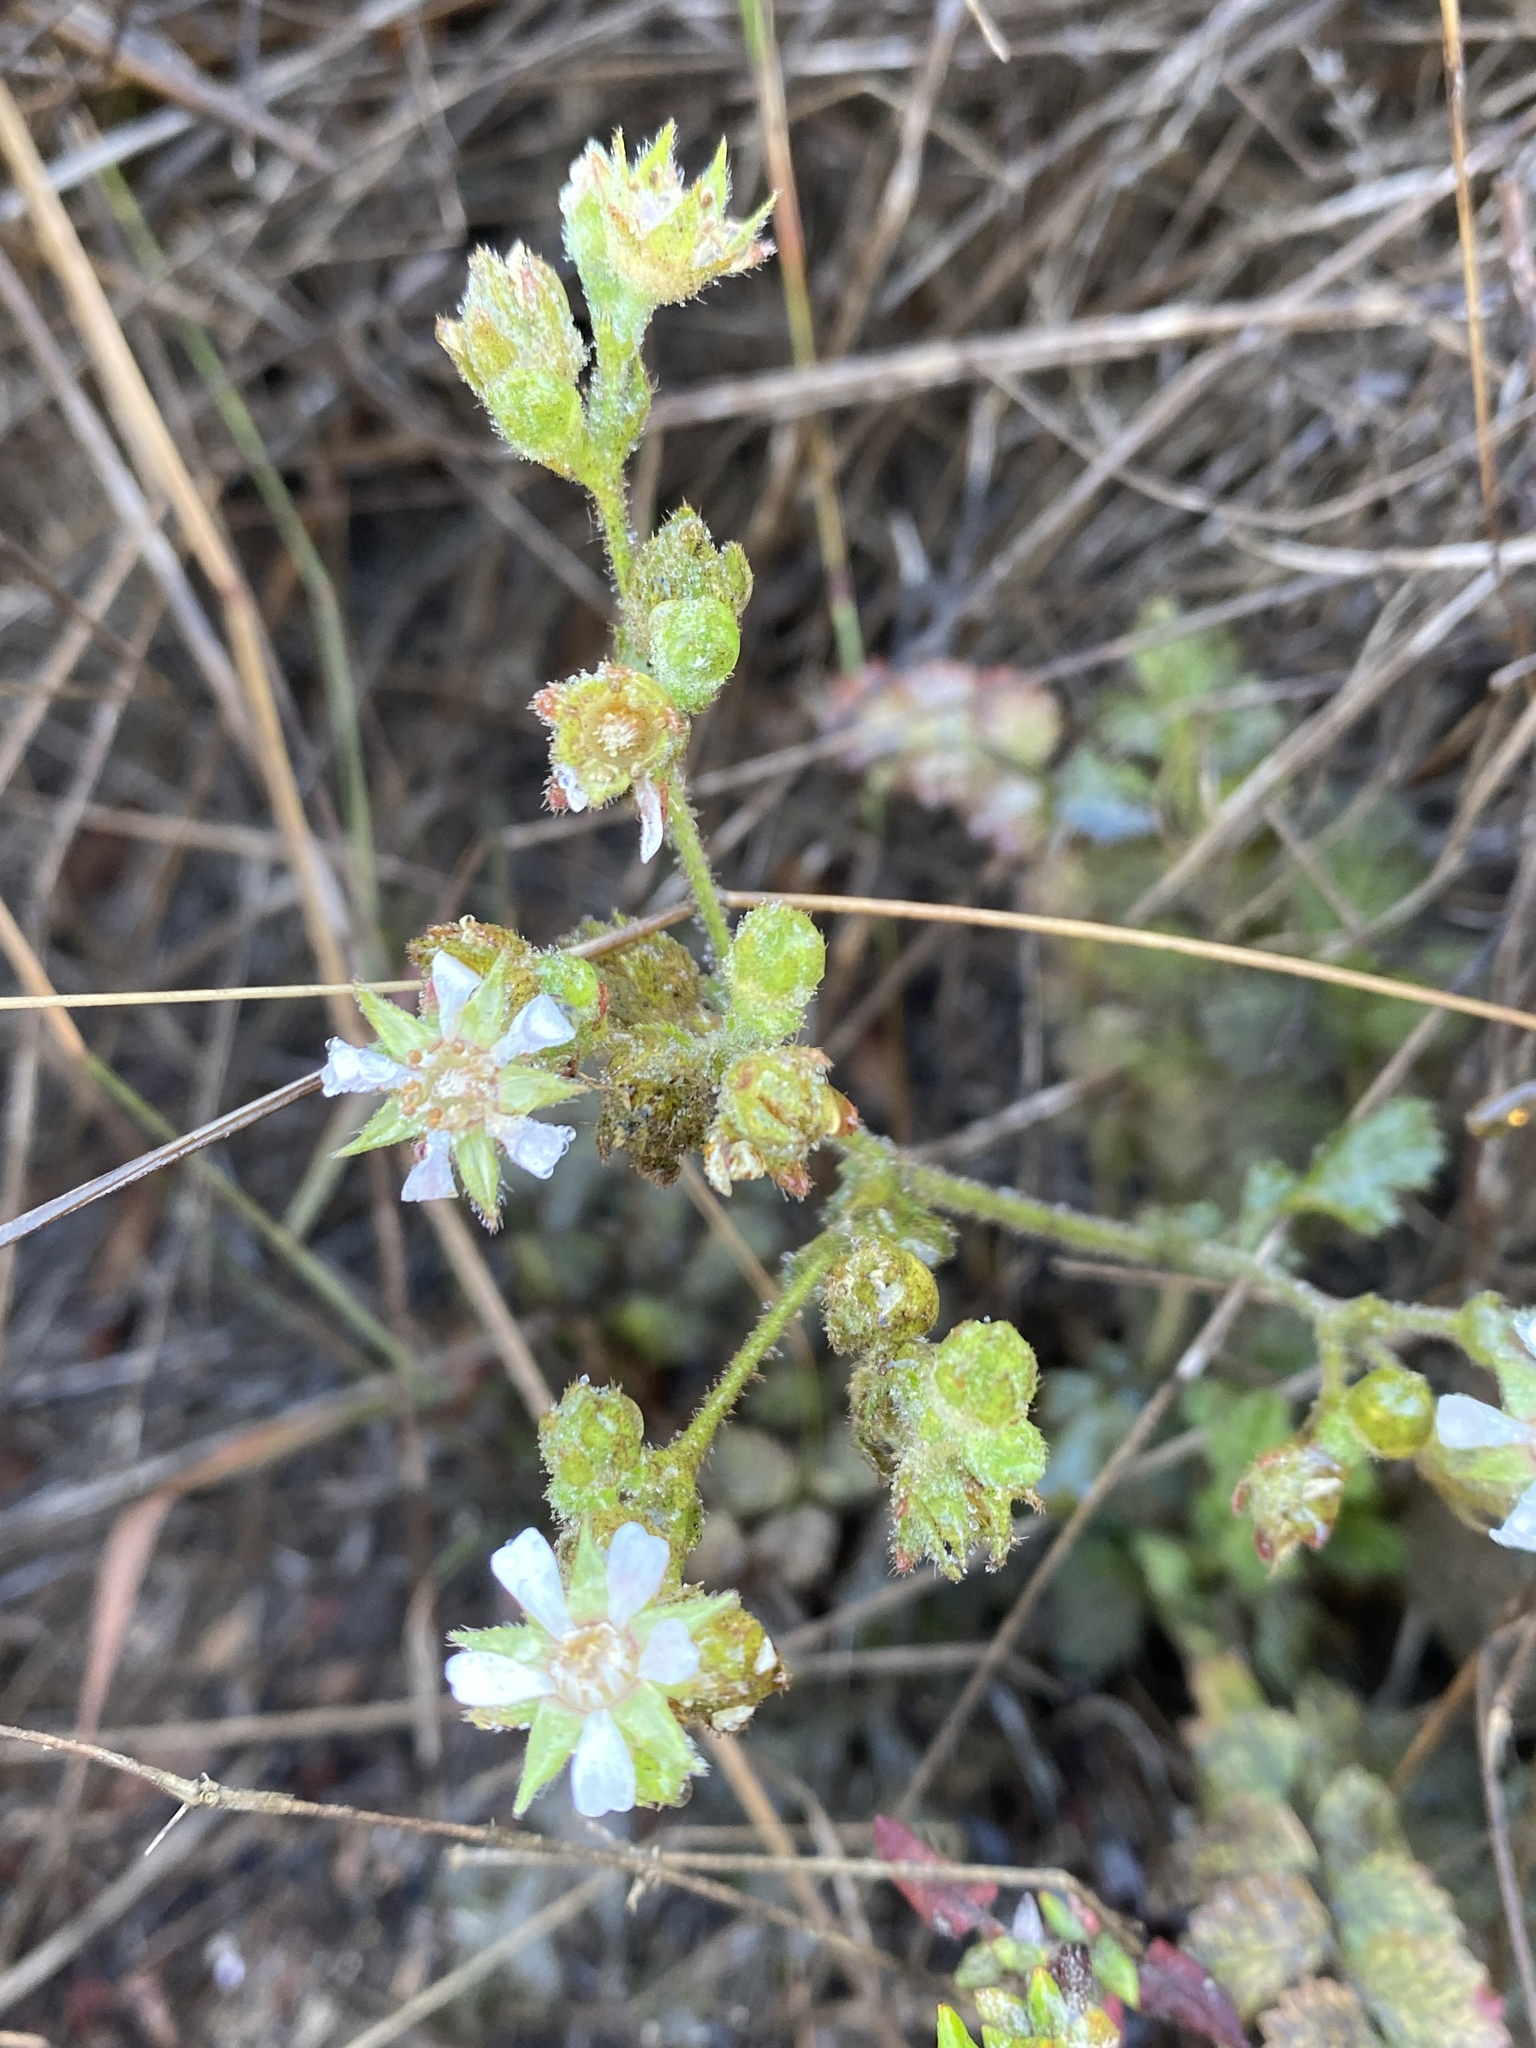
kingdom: Plantae
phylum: Tracheophyta
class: Magnoliopsida
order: Rosales
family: Rosaceae
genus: Potentilla
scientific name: Potentilla
